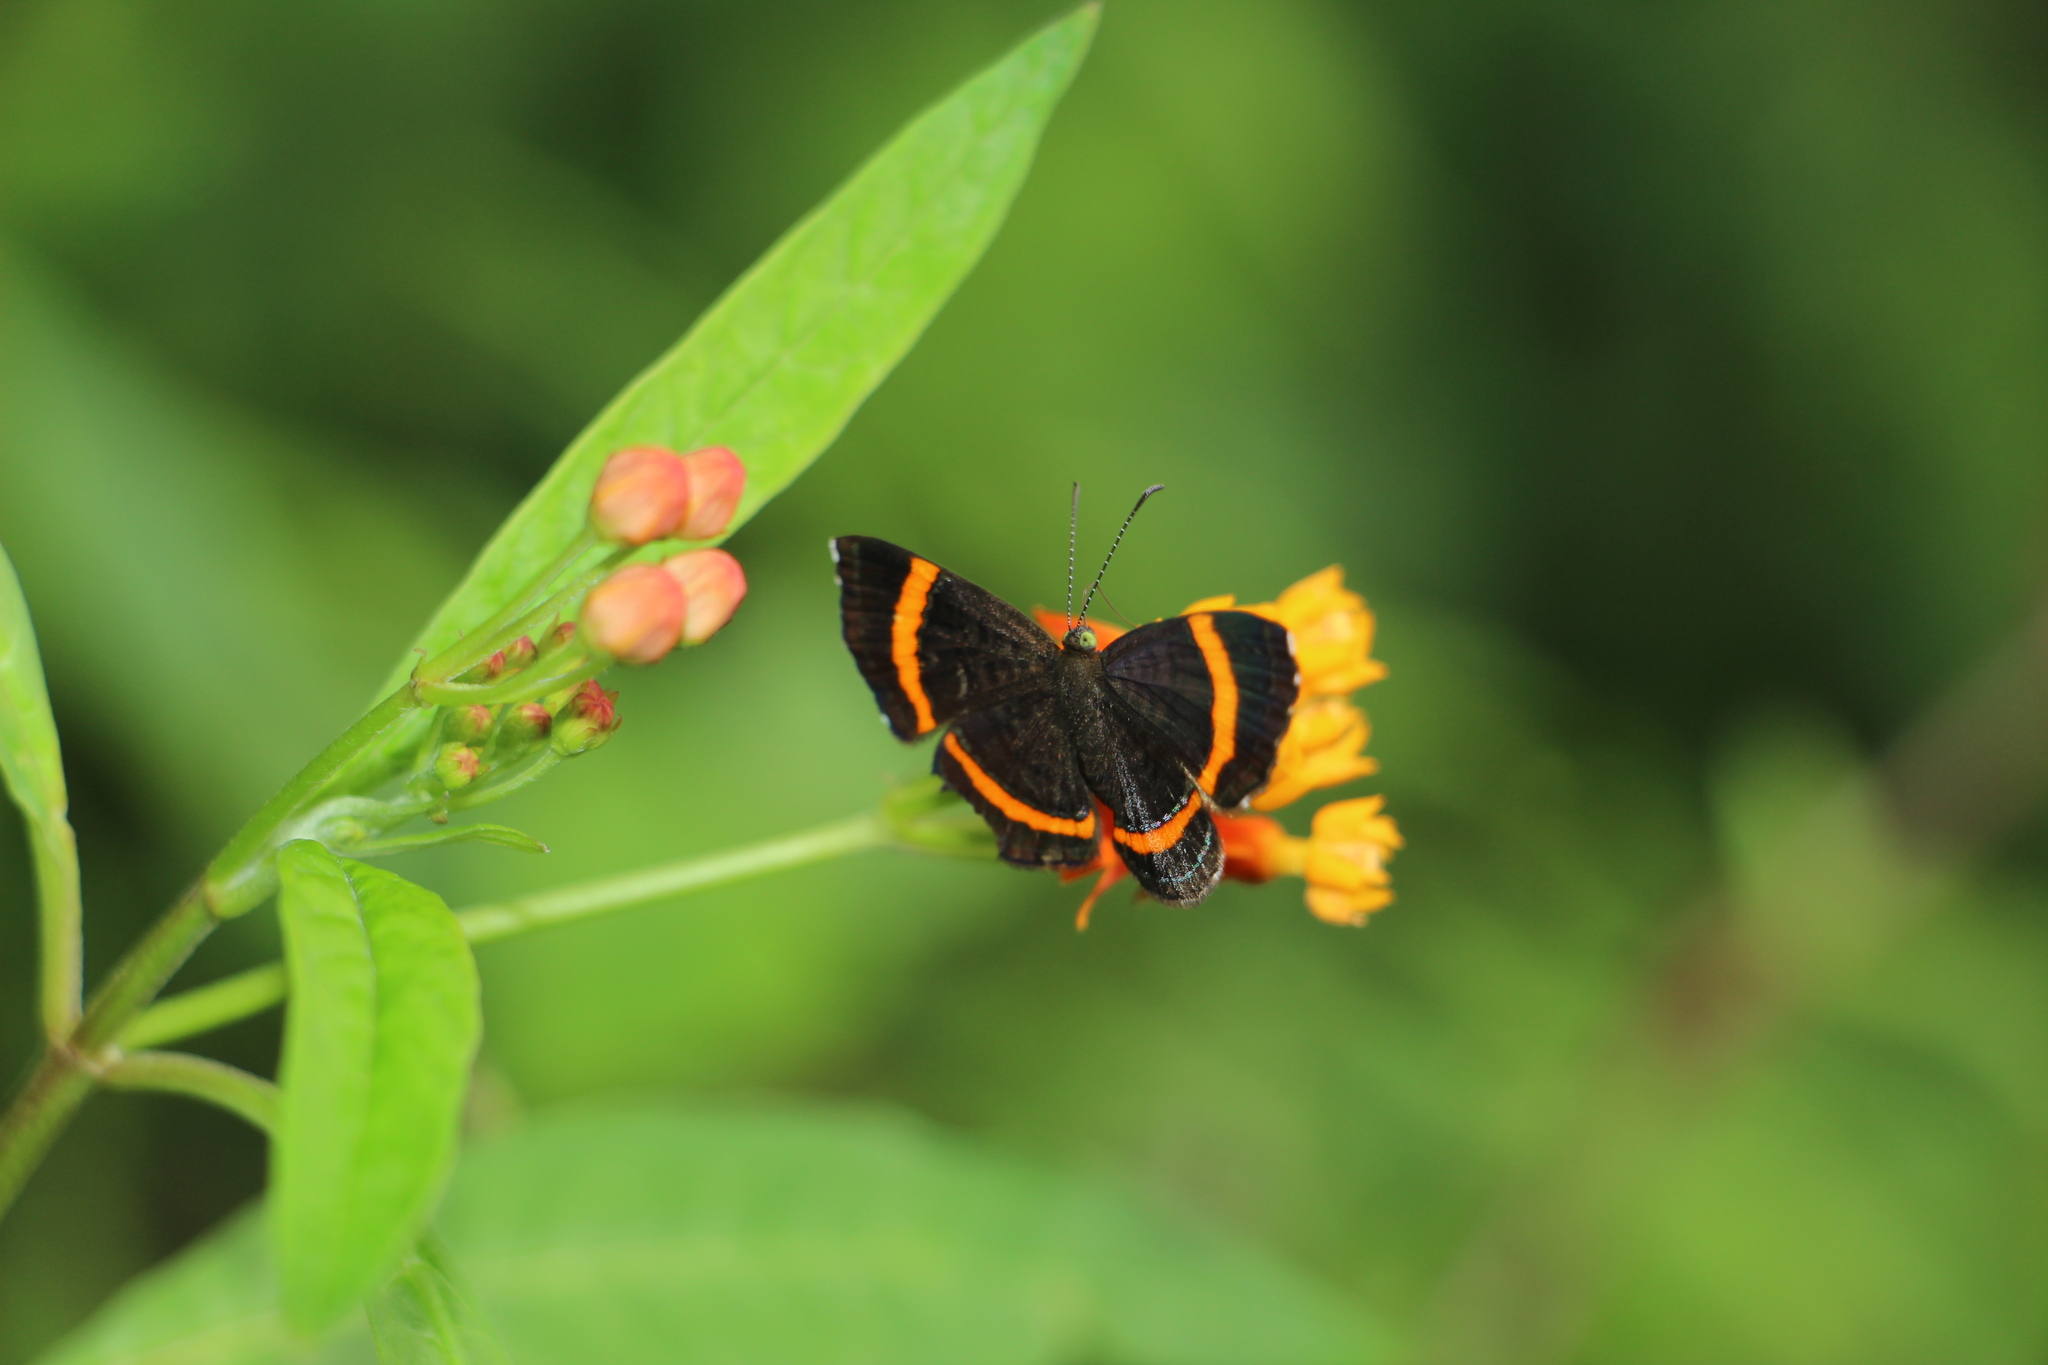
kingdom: Animalia
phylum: Arthropoda
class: Insecta
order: Lepidoptera
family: Riodinidae
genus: Crocozona
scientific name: Crocozona coecias
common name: Orange-banded gem
